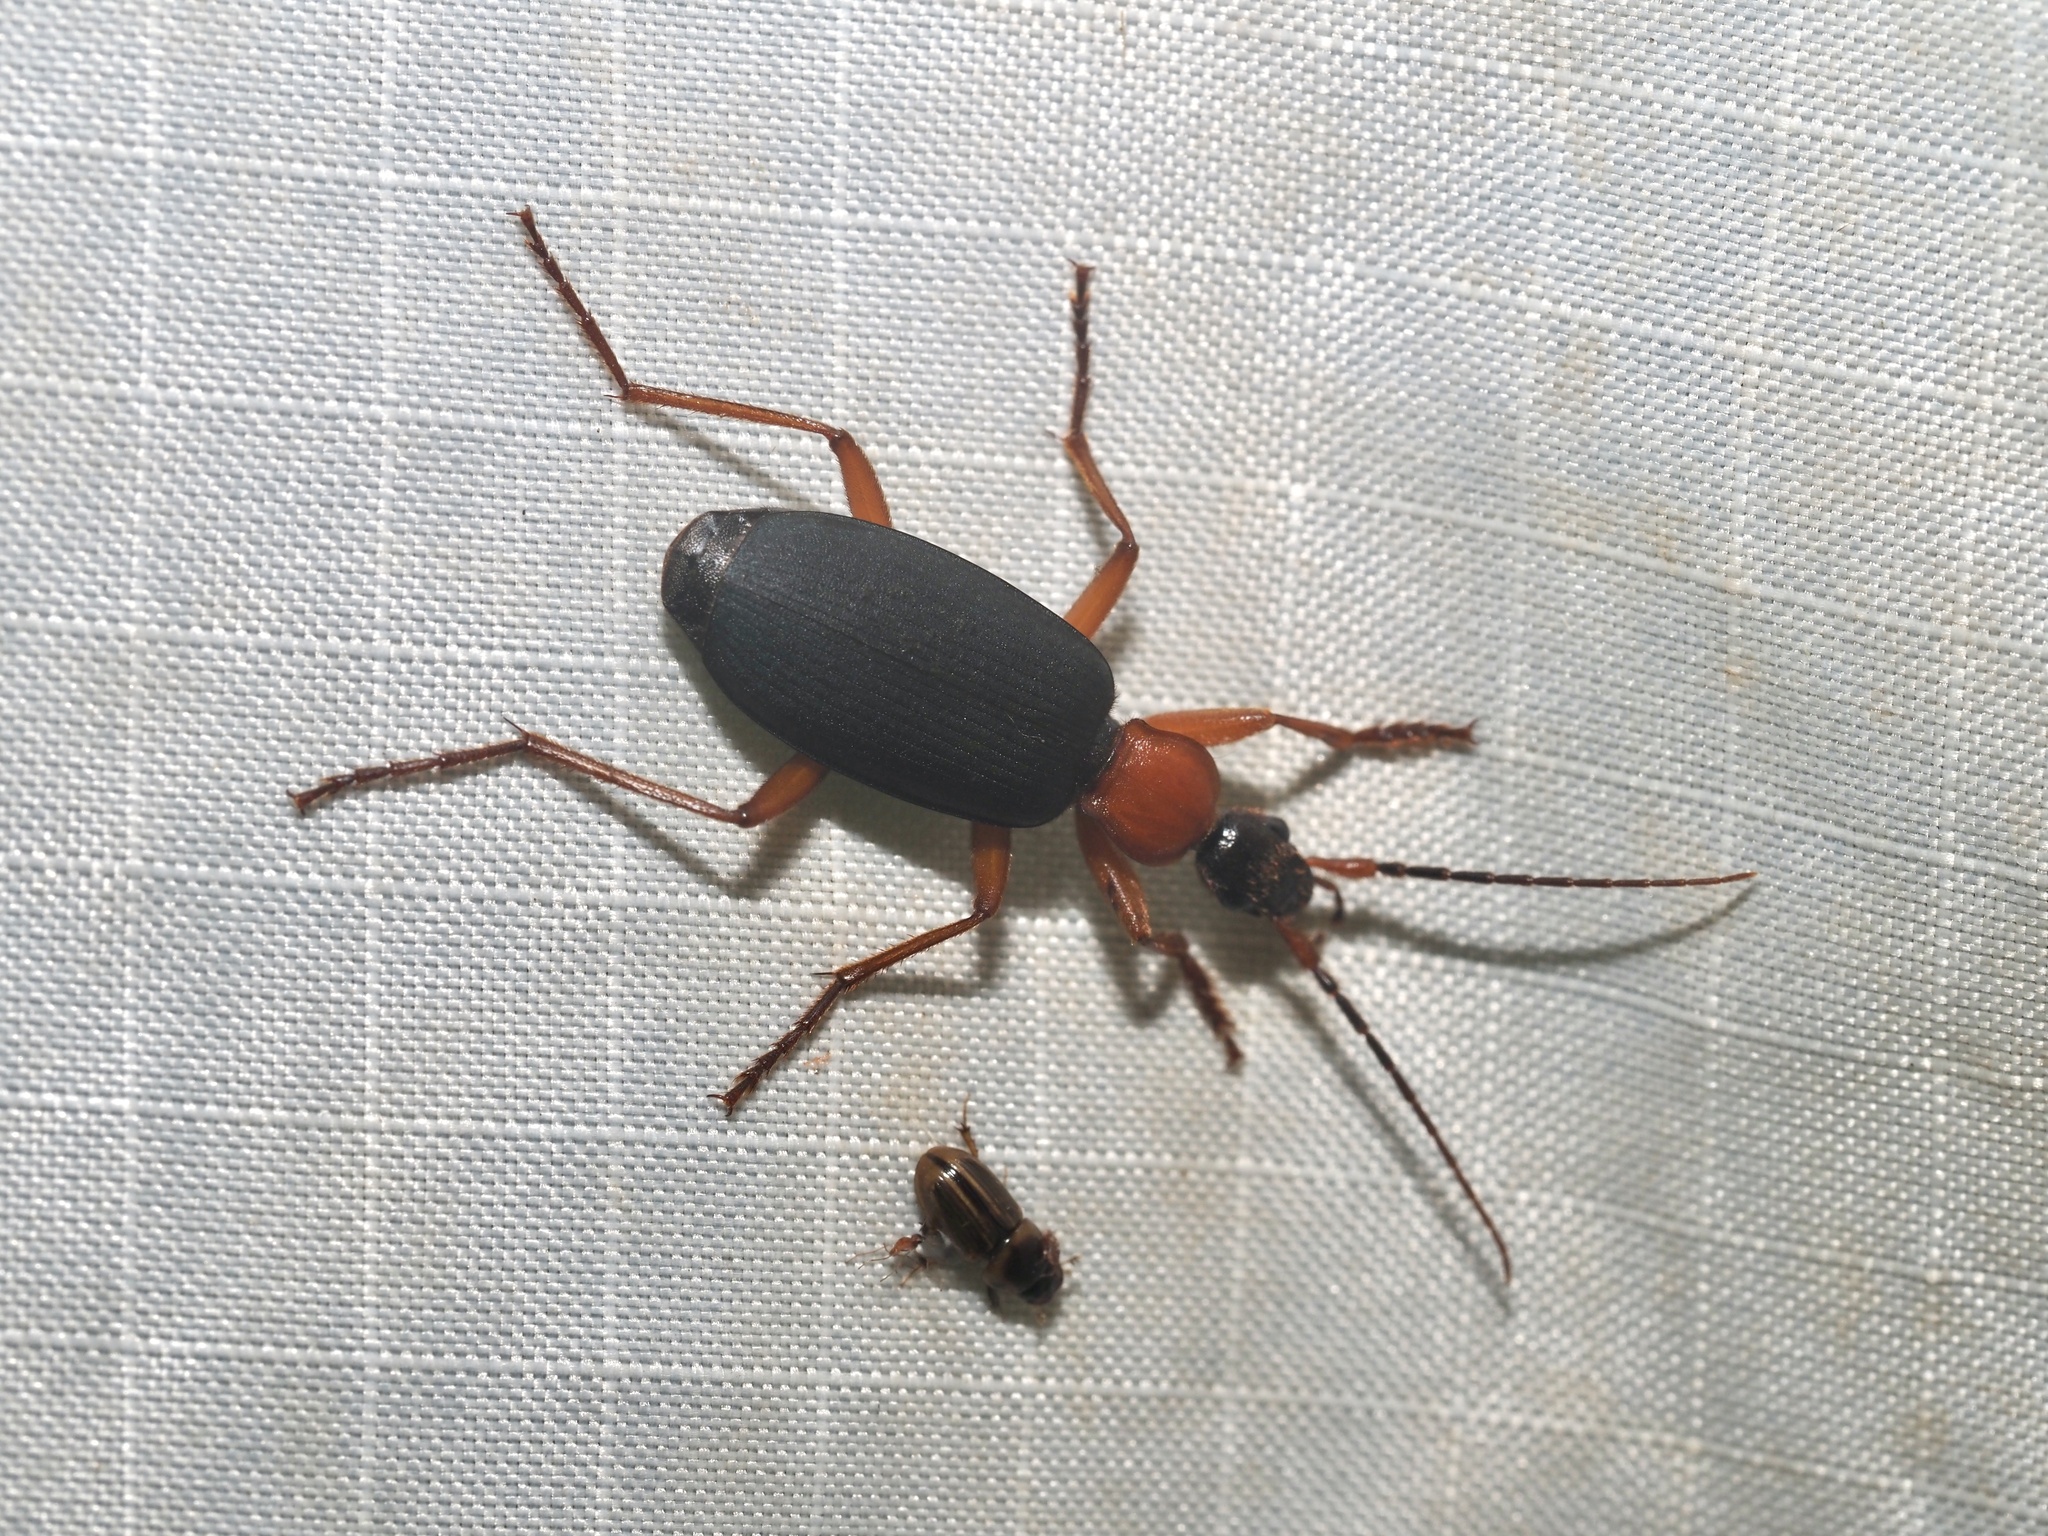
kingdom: Animalia
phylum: Arthropoda
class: Insecta
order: Coleoptera
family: Carabidae
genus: Galerita
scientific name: Galerita bicolor
